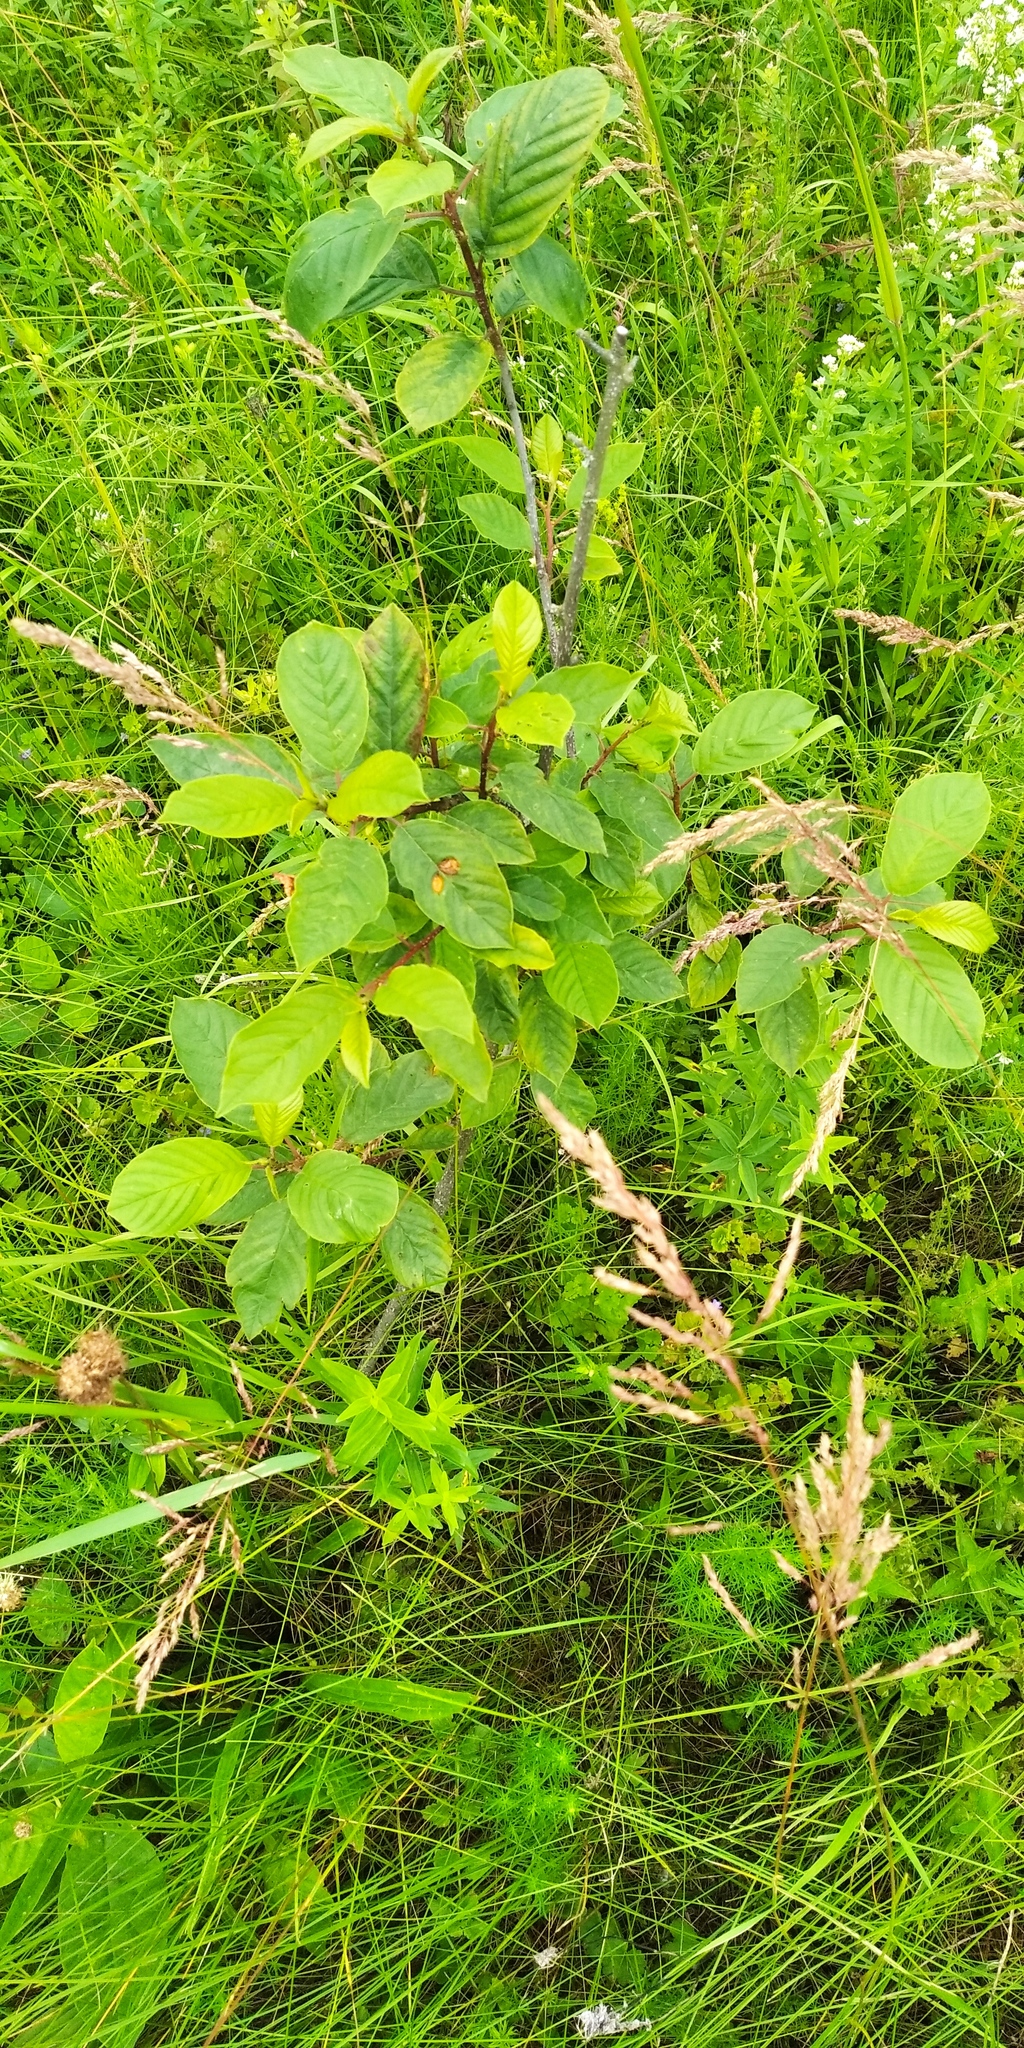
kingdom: Plantae
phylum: Tracheophyta
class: Magnoliopsida
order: Rosales
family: Rhamnaceae
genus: Frangula
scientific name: Frangula alnus
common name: Alder buckthorn
